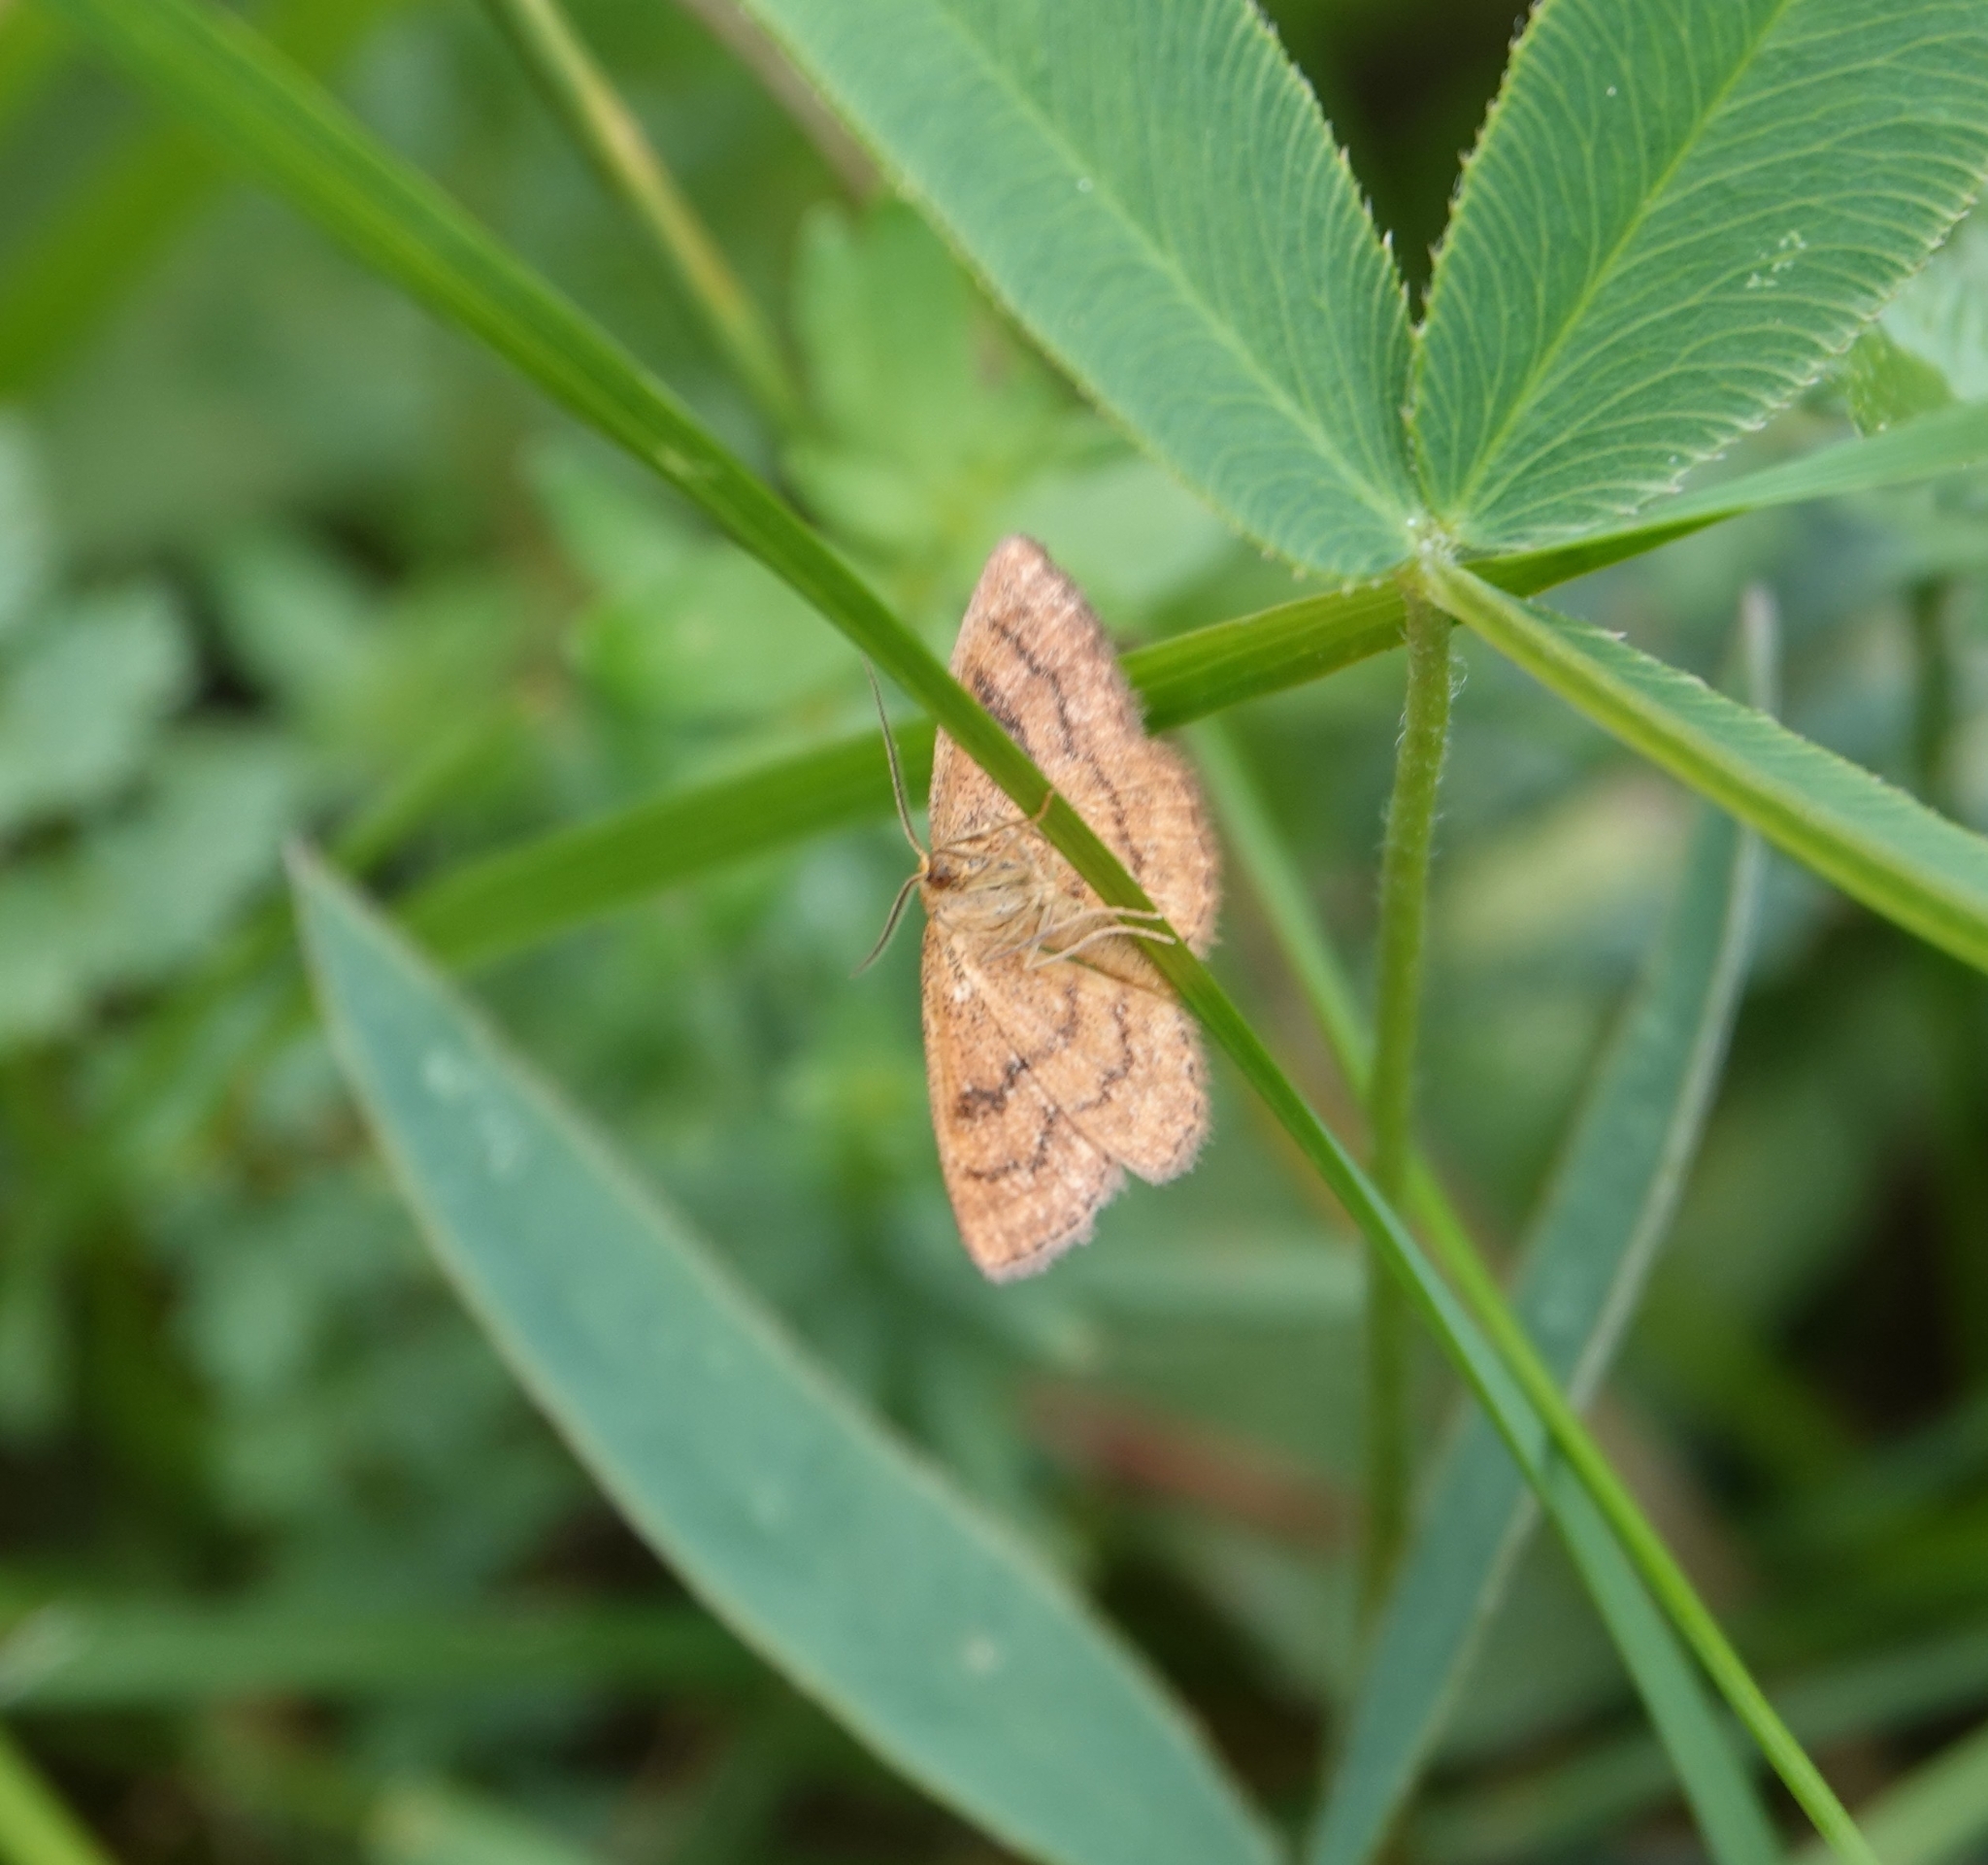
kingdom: Animalia
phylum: Arthropoda
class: Insecta
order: Lepidoptera
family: Geometridae
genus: Idaea
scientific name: Idaea serpentata
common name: Ochraceous wave
